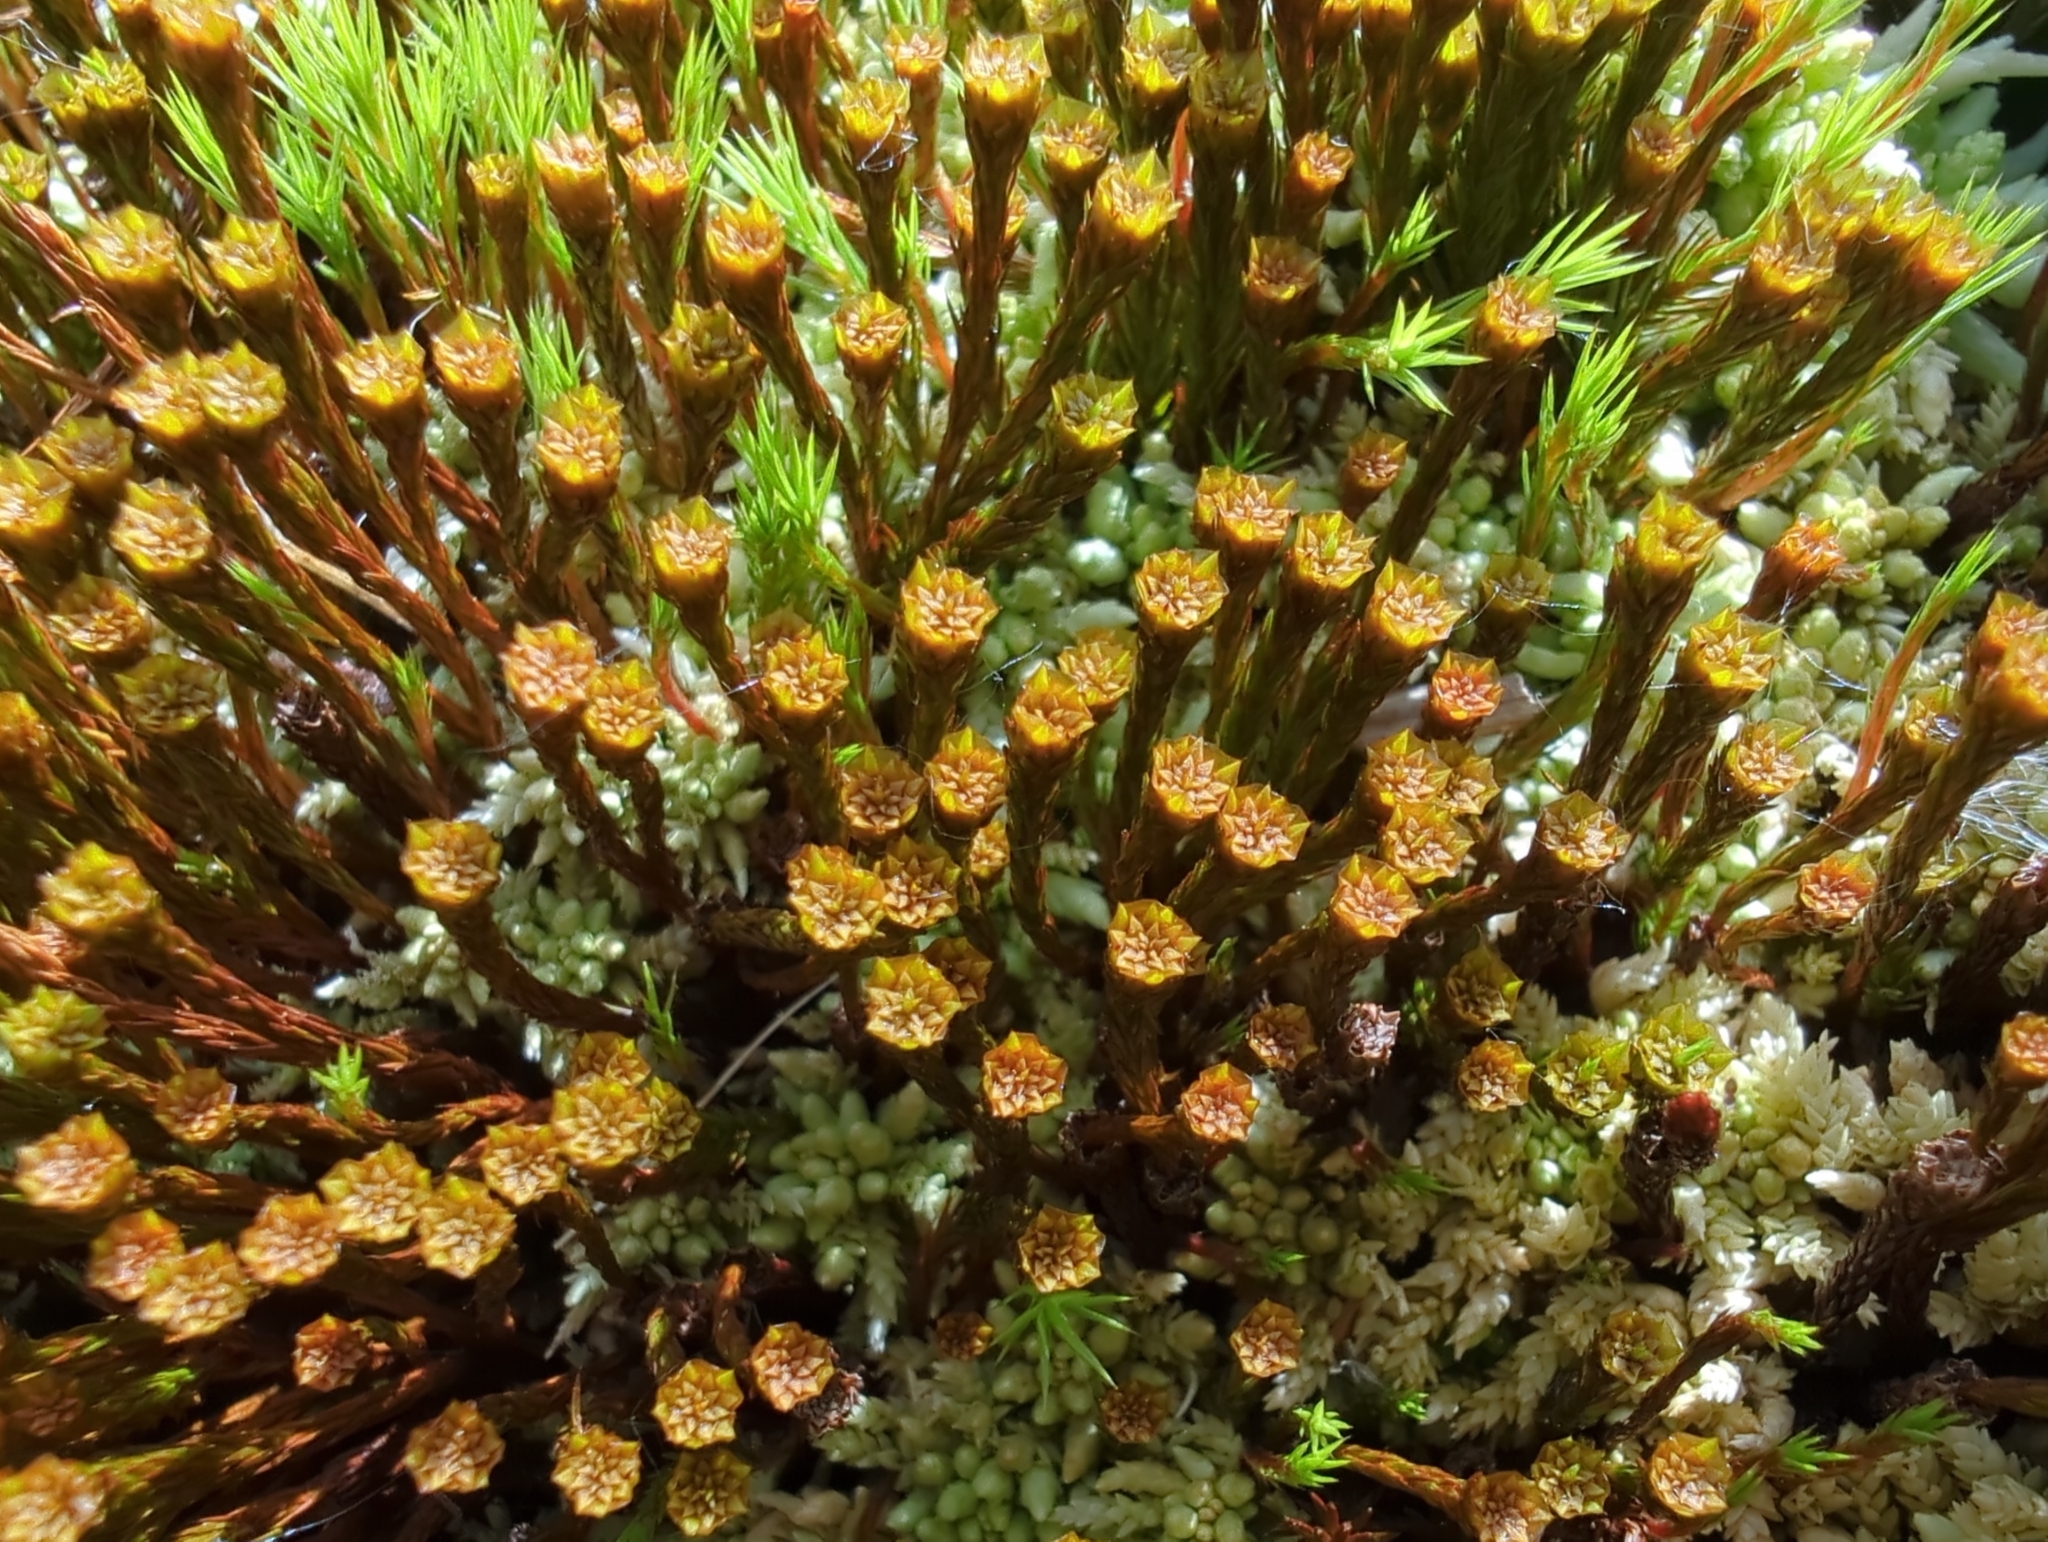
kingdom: Plantae
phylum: Bryophyta
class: Polytrichopsida
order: Polytrichales
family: Polytrichaceae
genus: Polytrichum
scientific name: Polytrichum strictum
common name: Bog haircap moss
